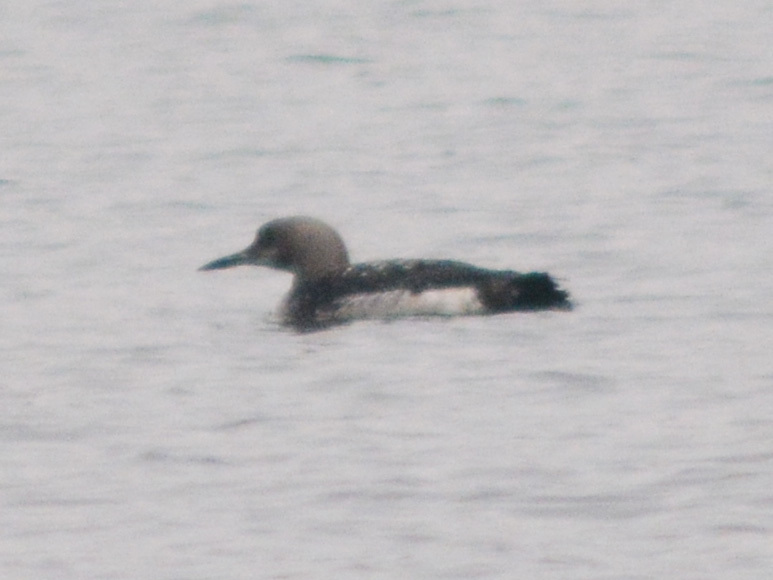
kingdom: Animalia
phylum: Chordata
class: Aves
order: Gaviiformes
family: Gaviidae
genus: Gavia
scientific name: Gavia arctica
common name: Black-throated loon
